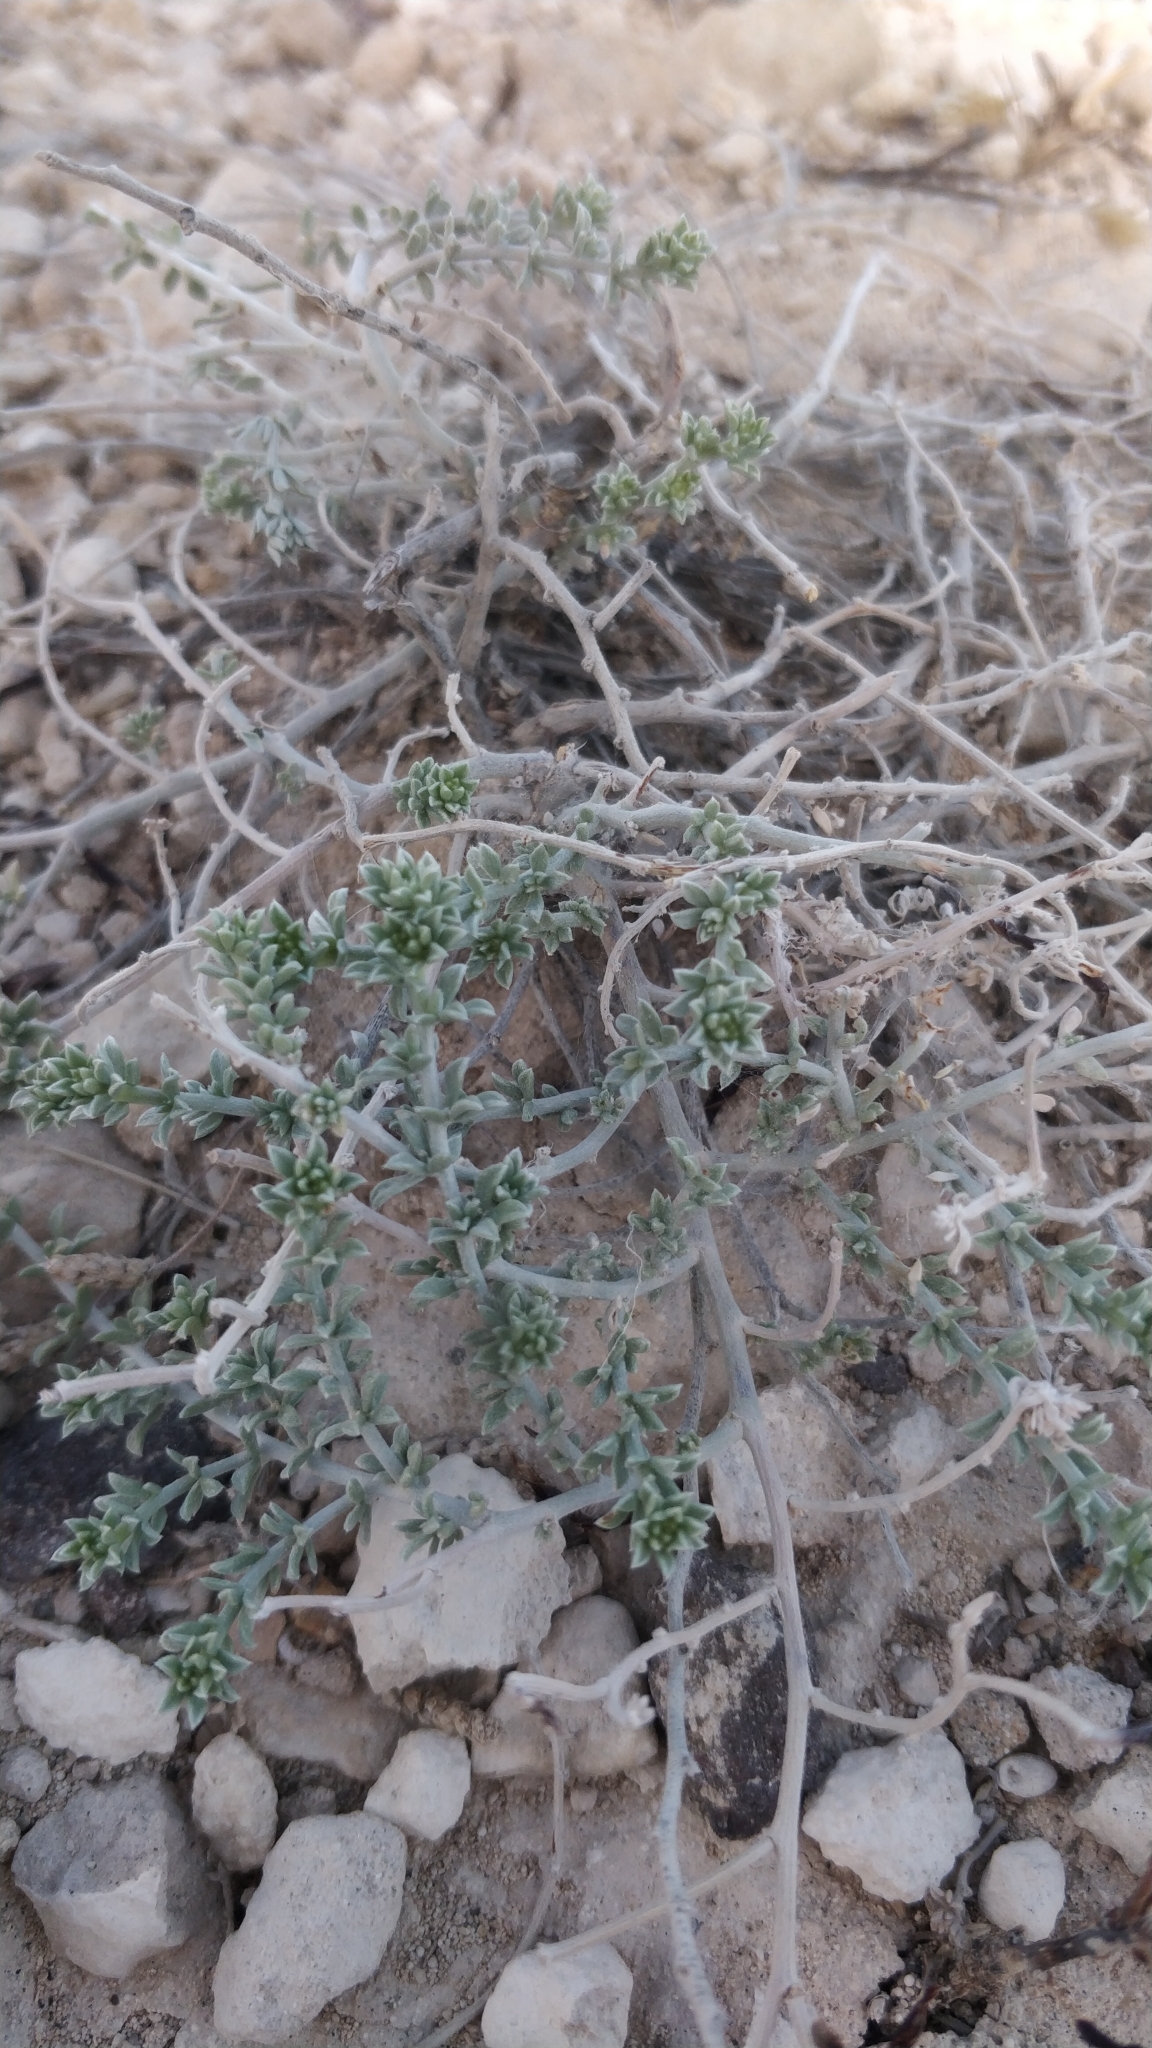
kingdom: Plantae
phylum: Tracheophyta
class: Magnoliopsida
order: Fabales
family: Fabaceae
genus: Lotus
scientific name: Lotus glaucus
